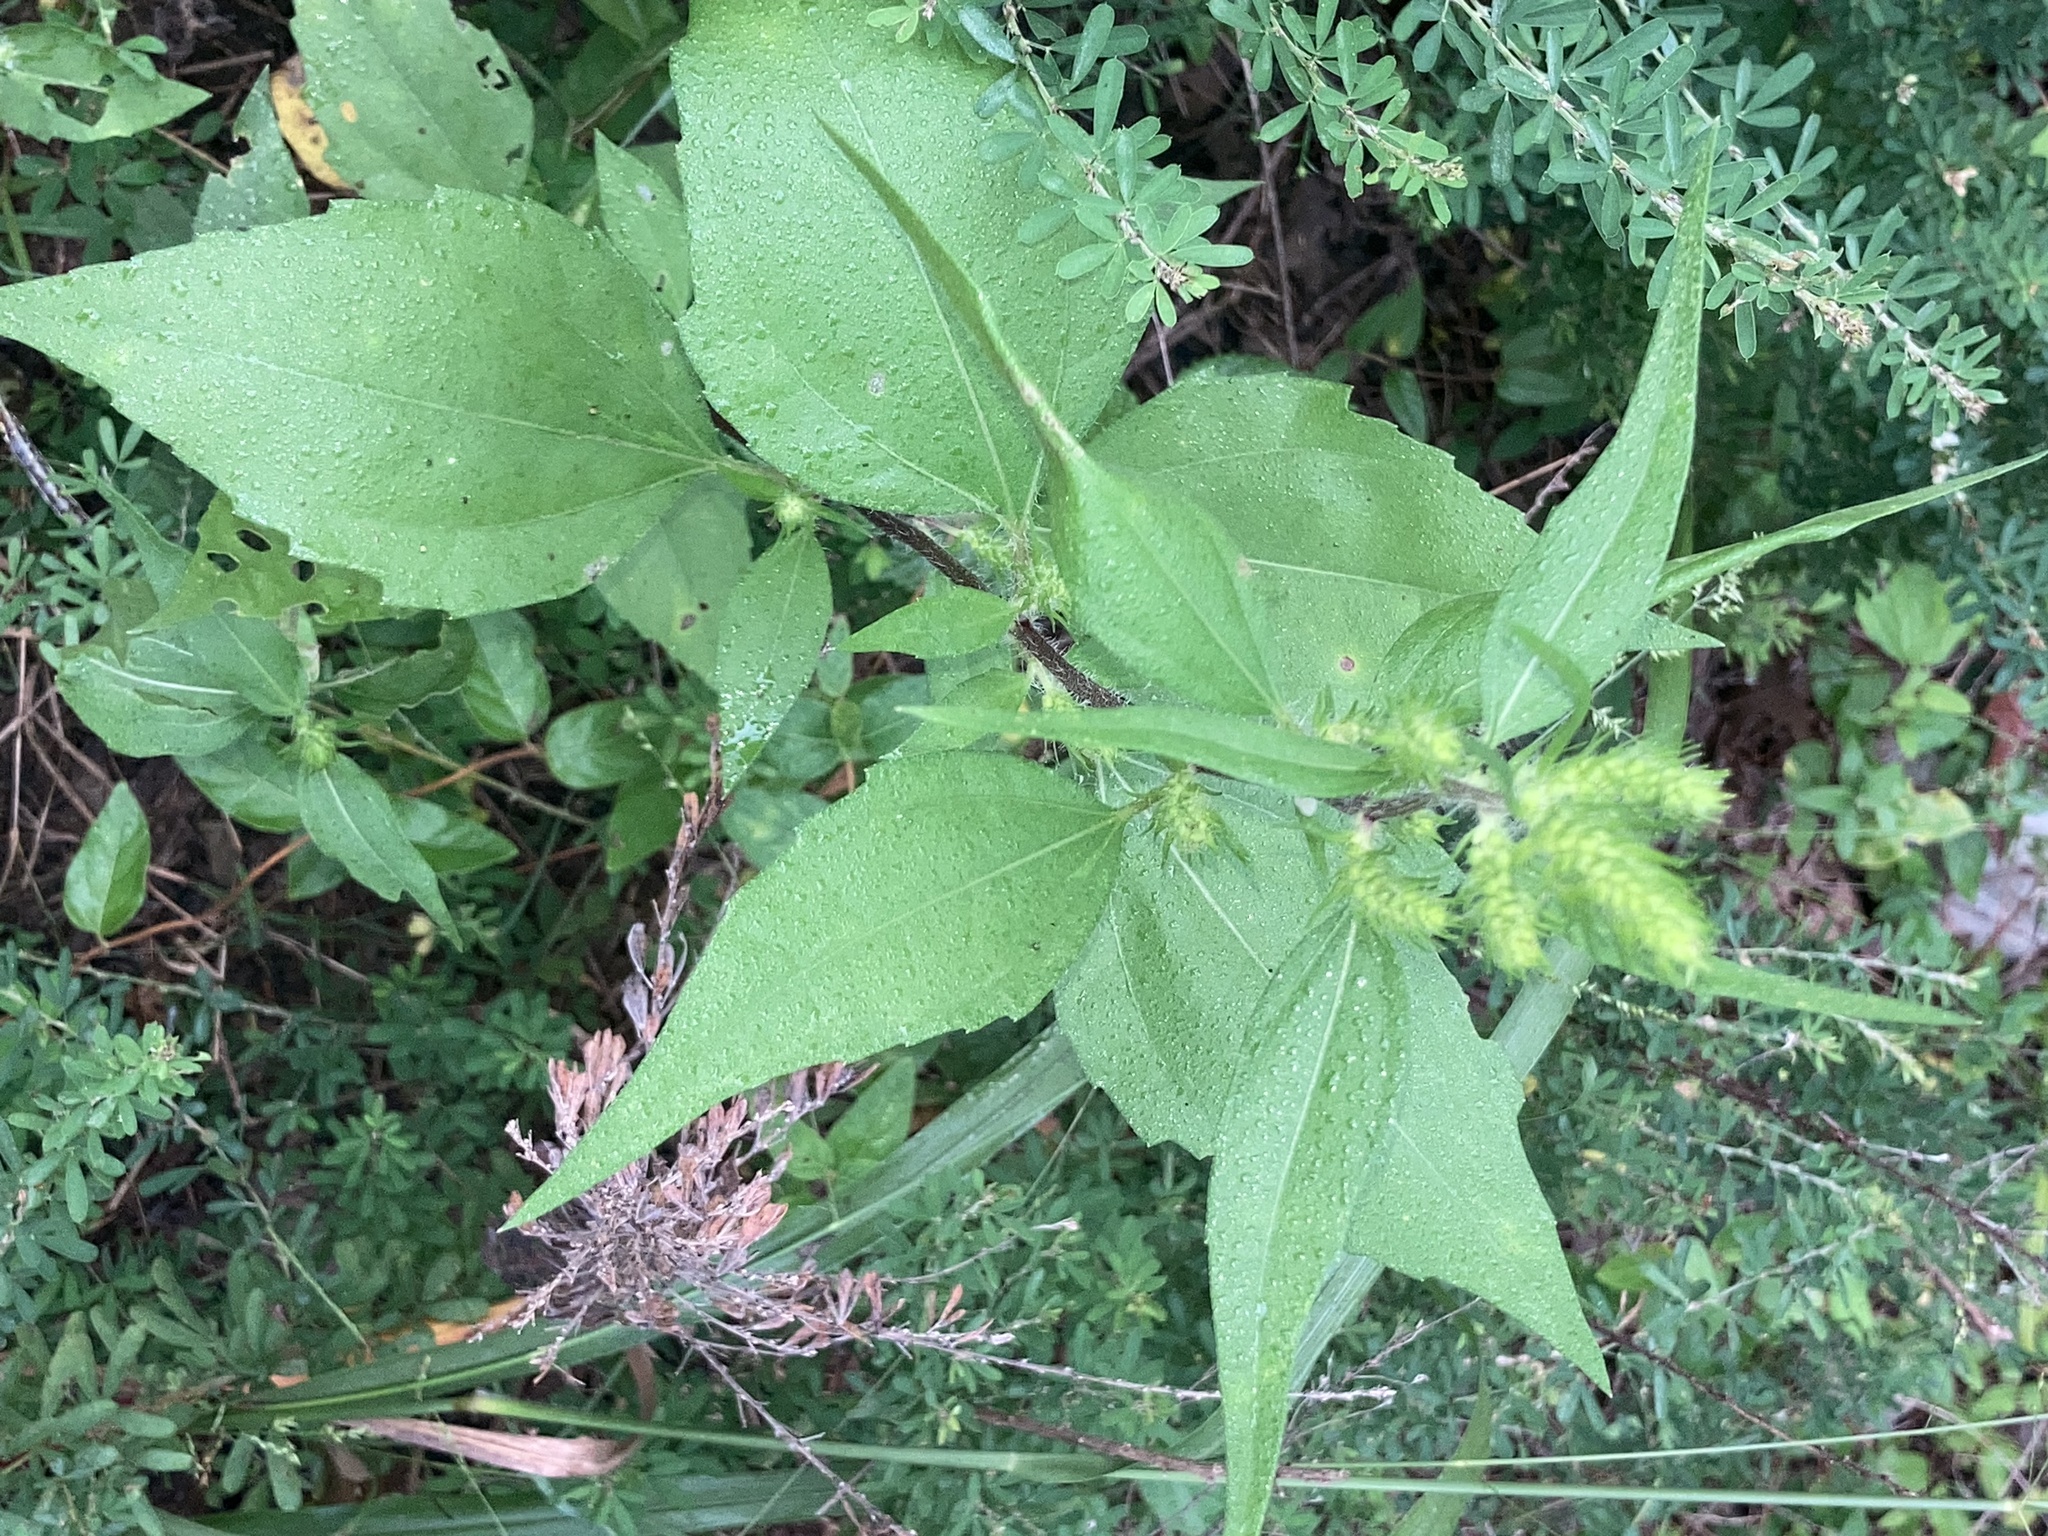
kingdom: Plantae
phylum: Tracheophyta
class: Magnoliopsida
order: Asterales
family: Asteraceae
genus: Iva
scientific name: Iva annua
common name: Marsh-elder
